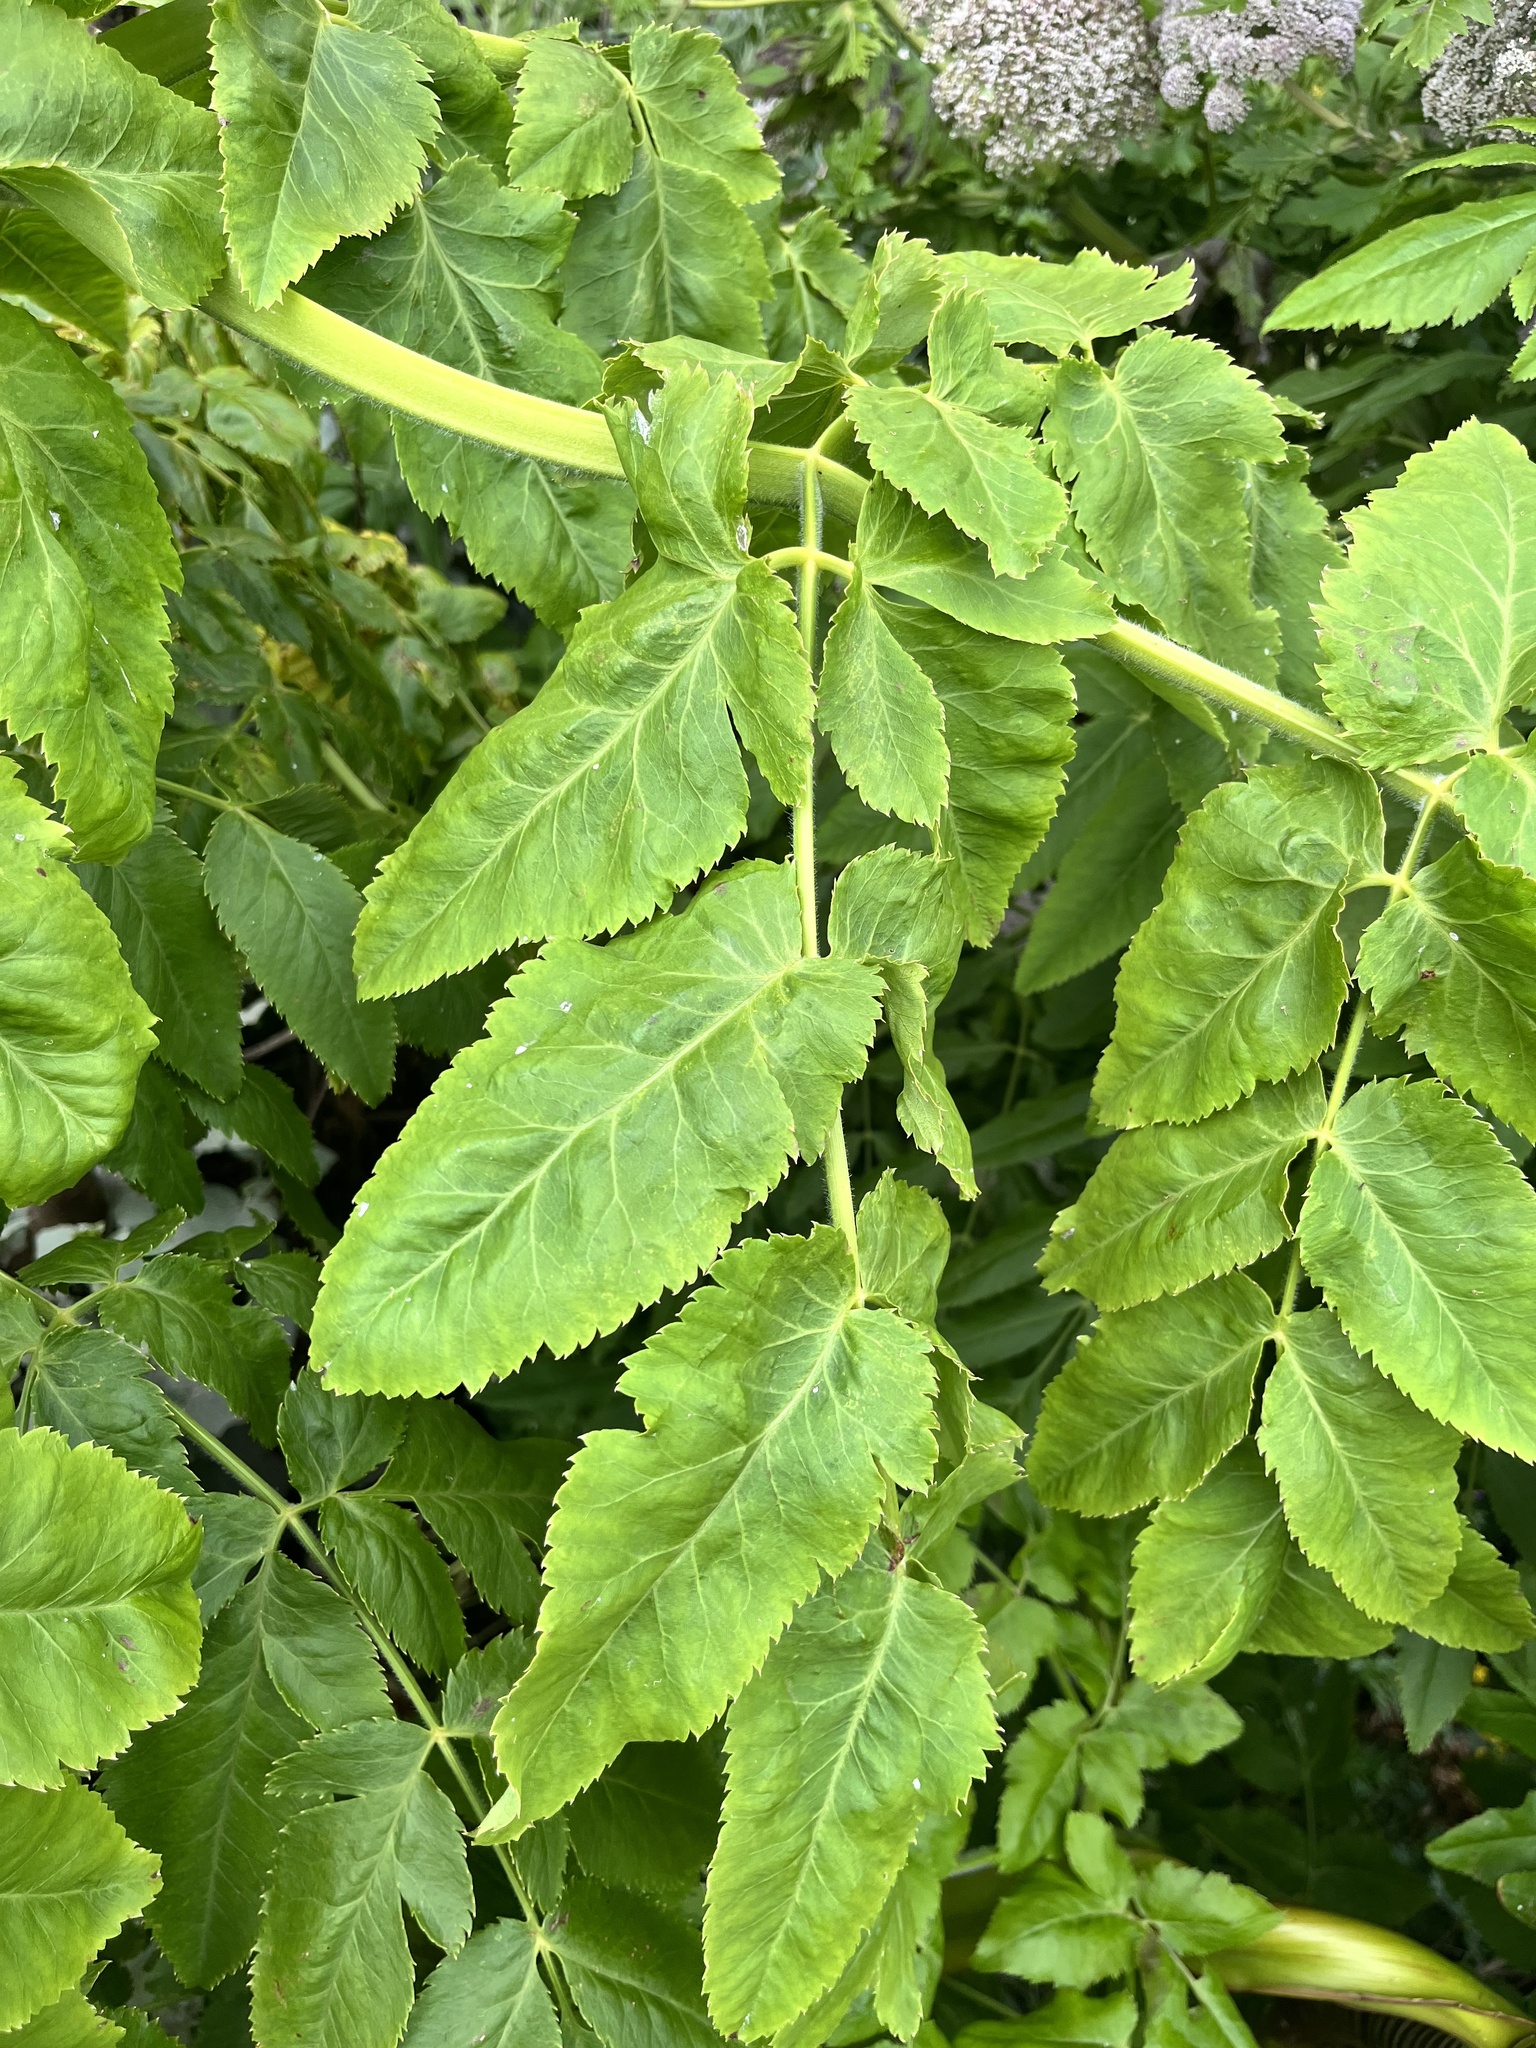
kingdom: Plantae
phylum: Tracheophyta
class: Magnoliopsida
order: Apiales
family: Apiaceae
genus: Daucus
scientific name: Daucus decipiens
